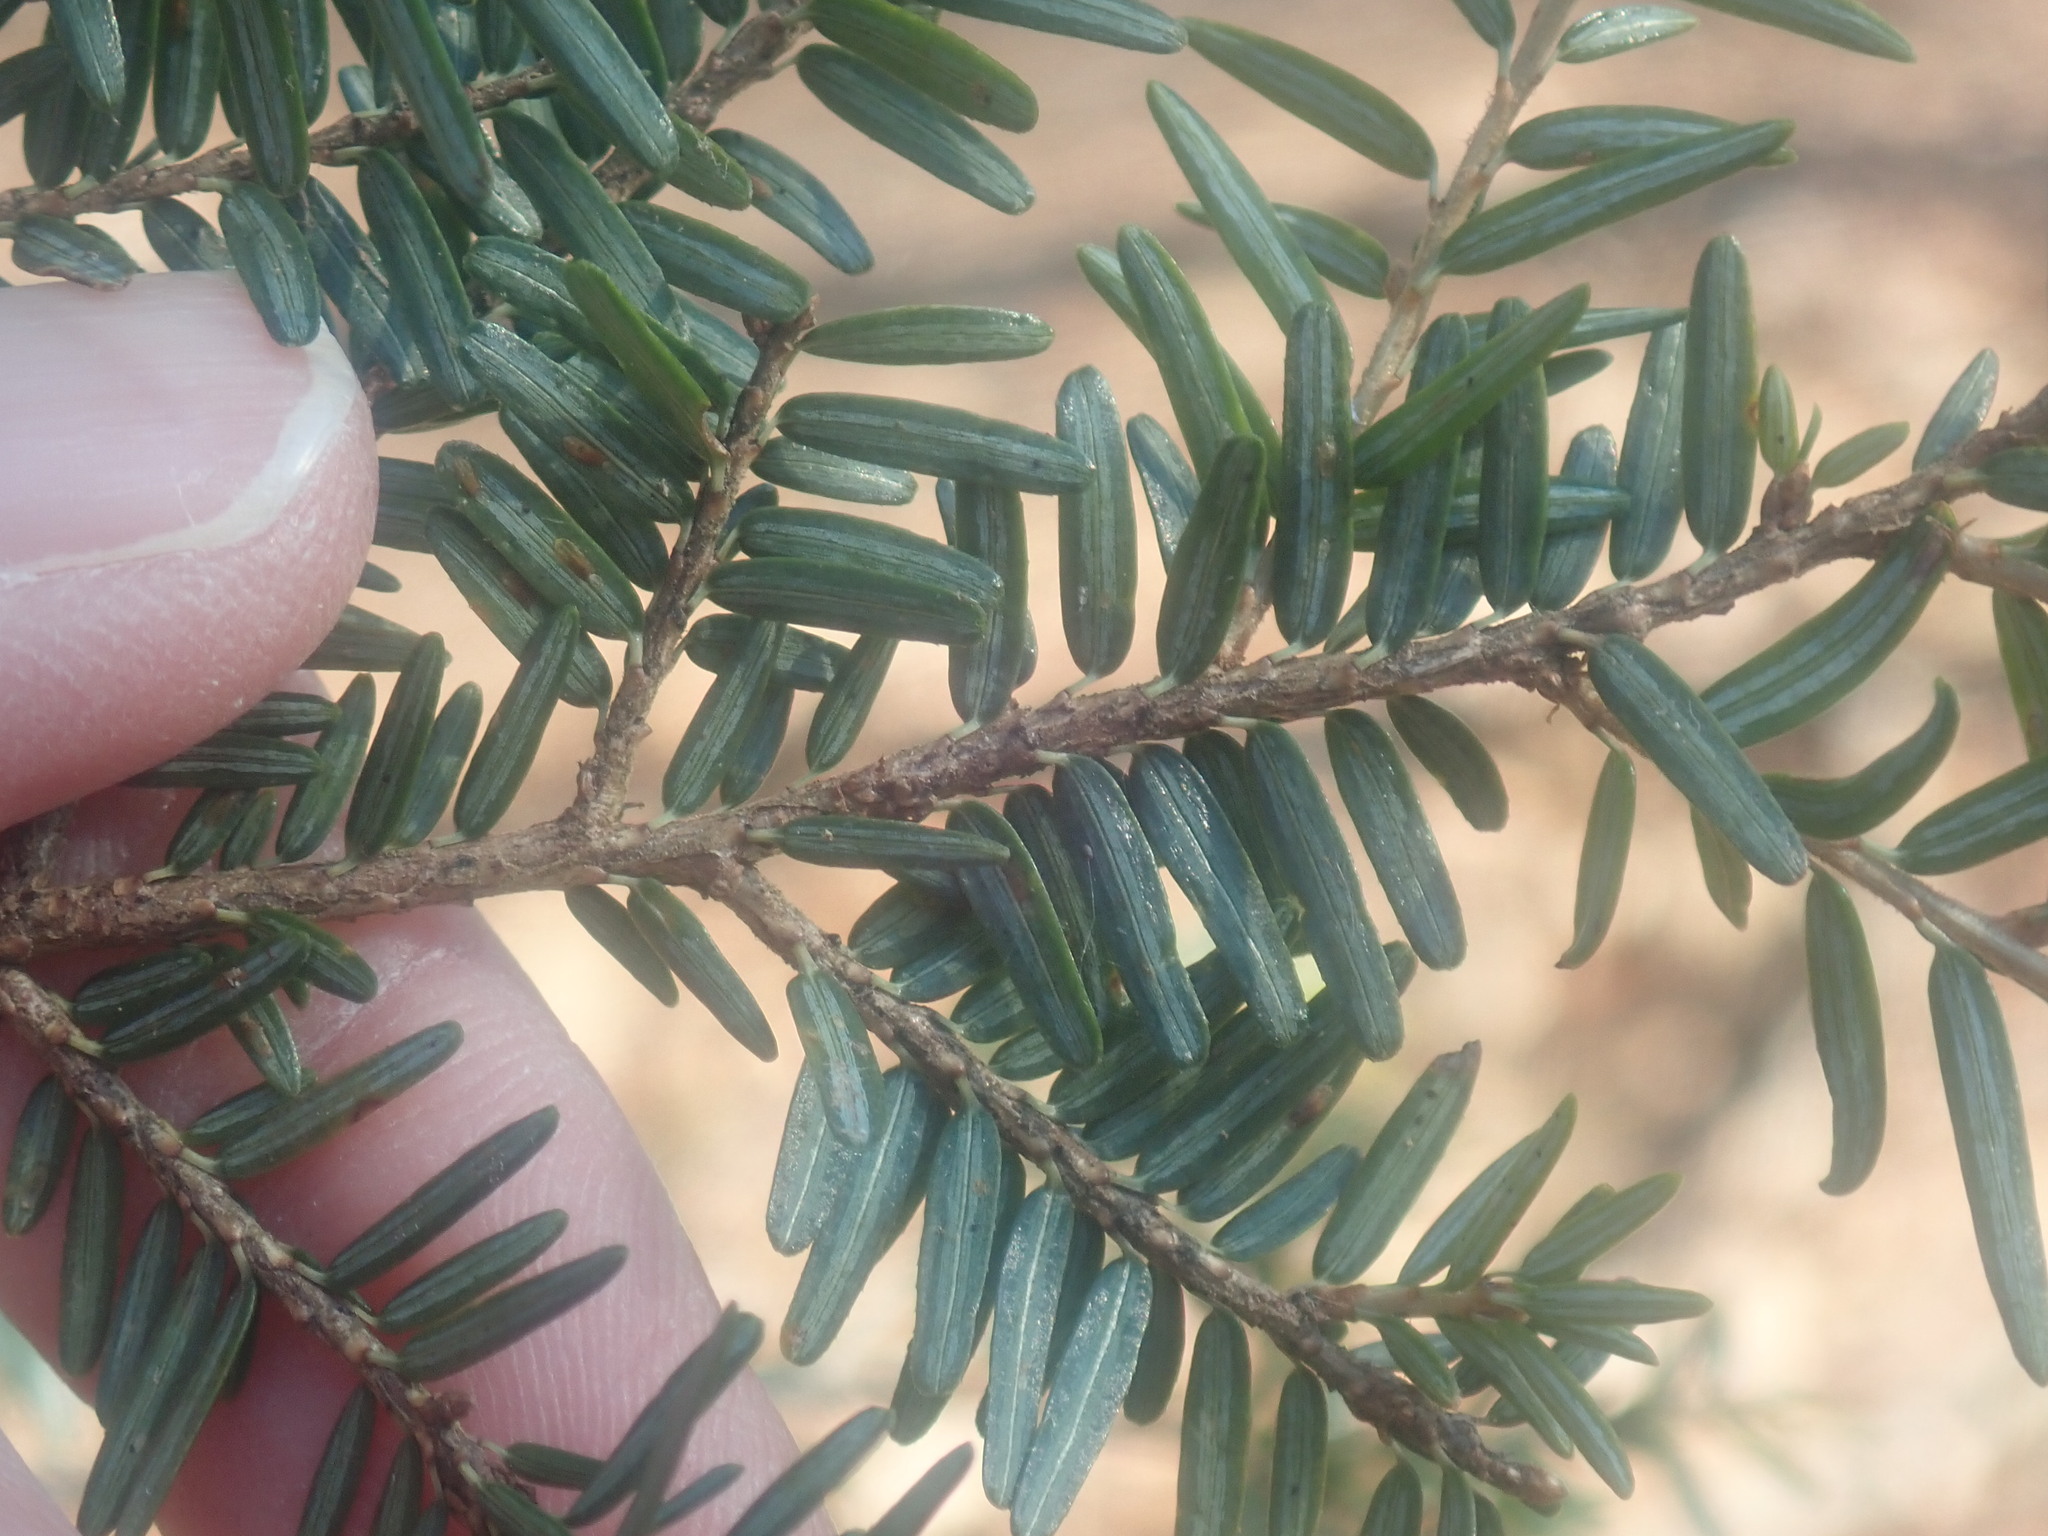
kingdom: Plantae
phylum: Tracheophyta
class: Pinopsida
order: Pinales
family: Pinaceae
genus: Tsuga
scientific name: Tsuga canadensis
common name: Eastern hemlock
